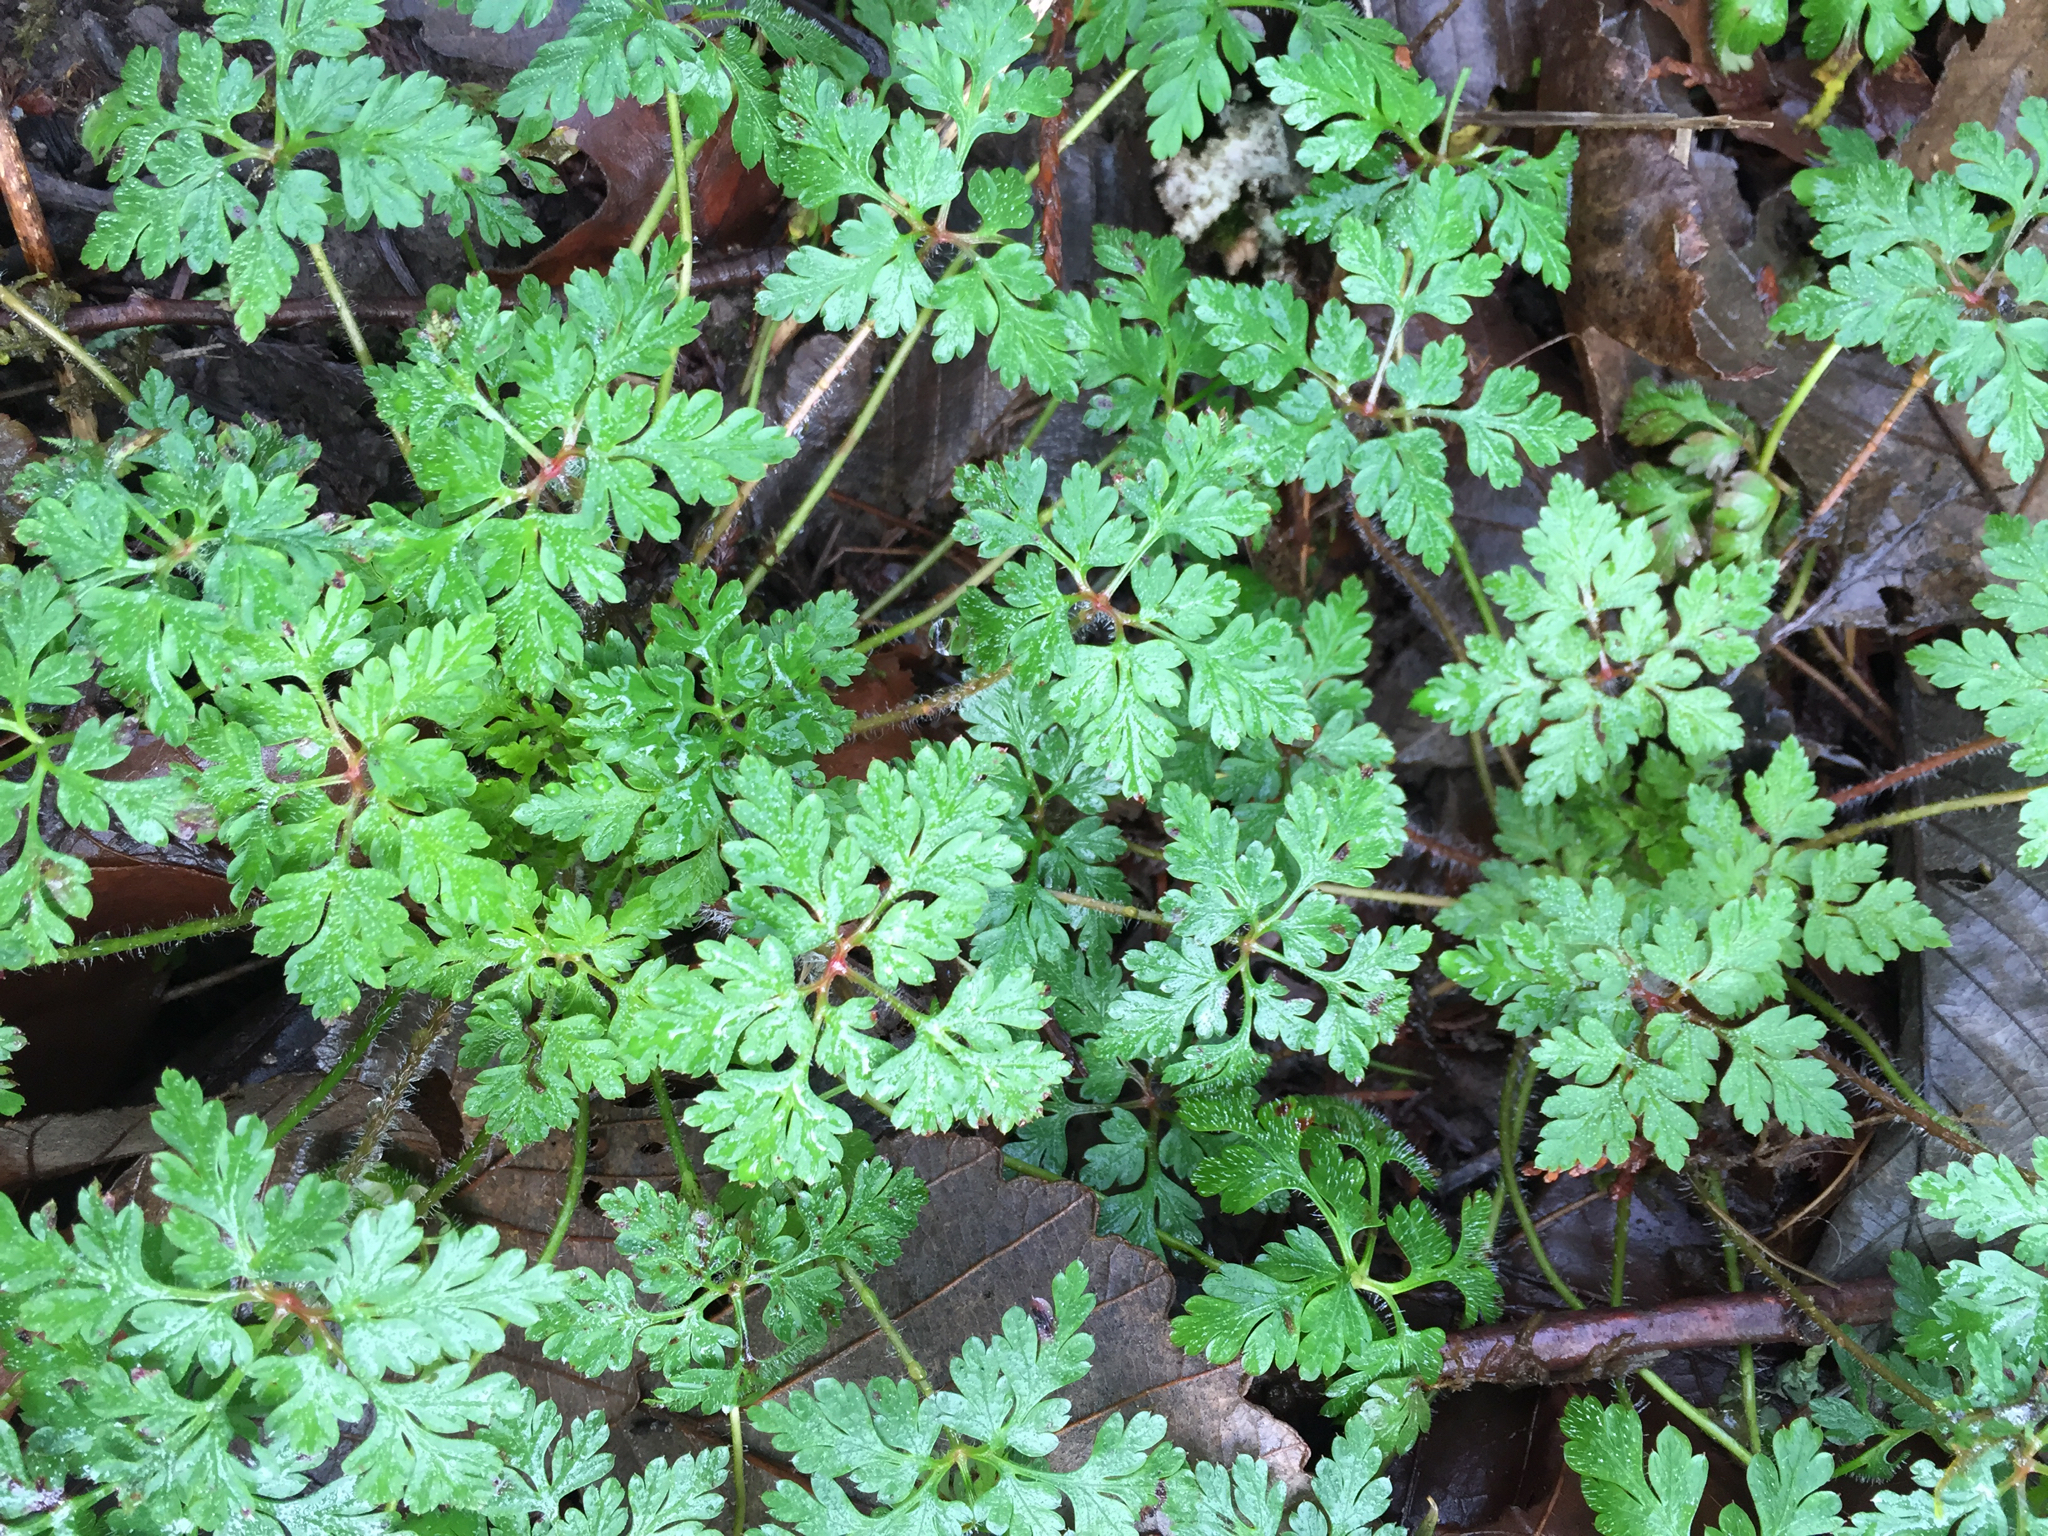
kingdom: Plantae
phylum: Tracheophyta
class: Magnoliopsida
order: Geraniales
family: Geraniaceae
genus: Geranium
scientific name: Geranium robertianum
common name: Herb-robert
